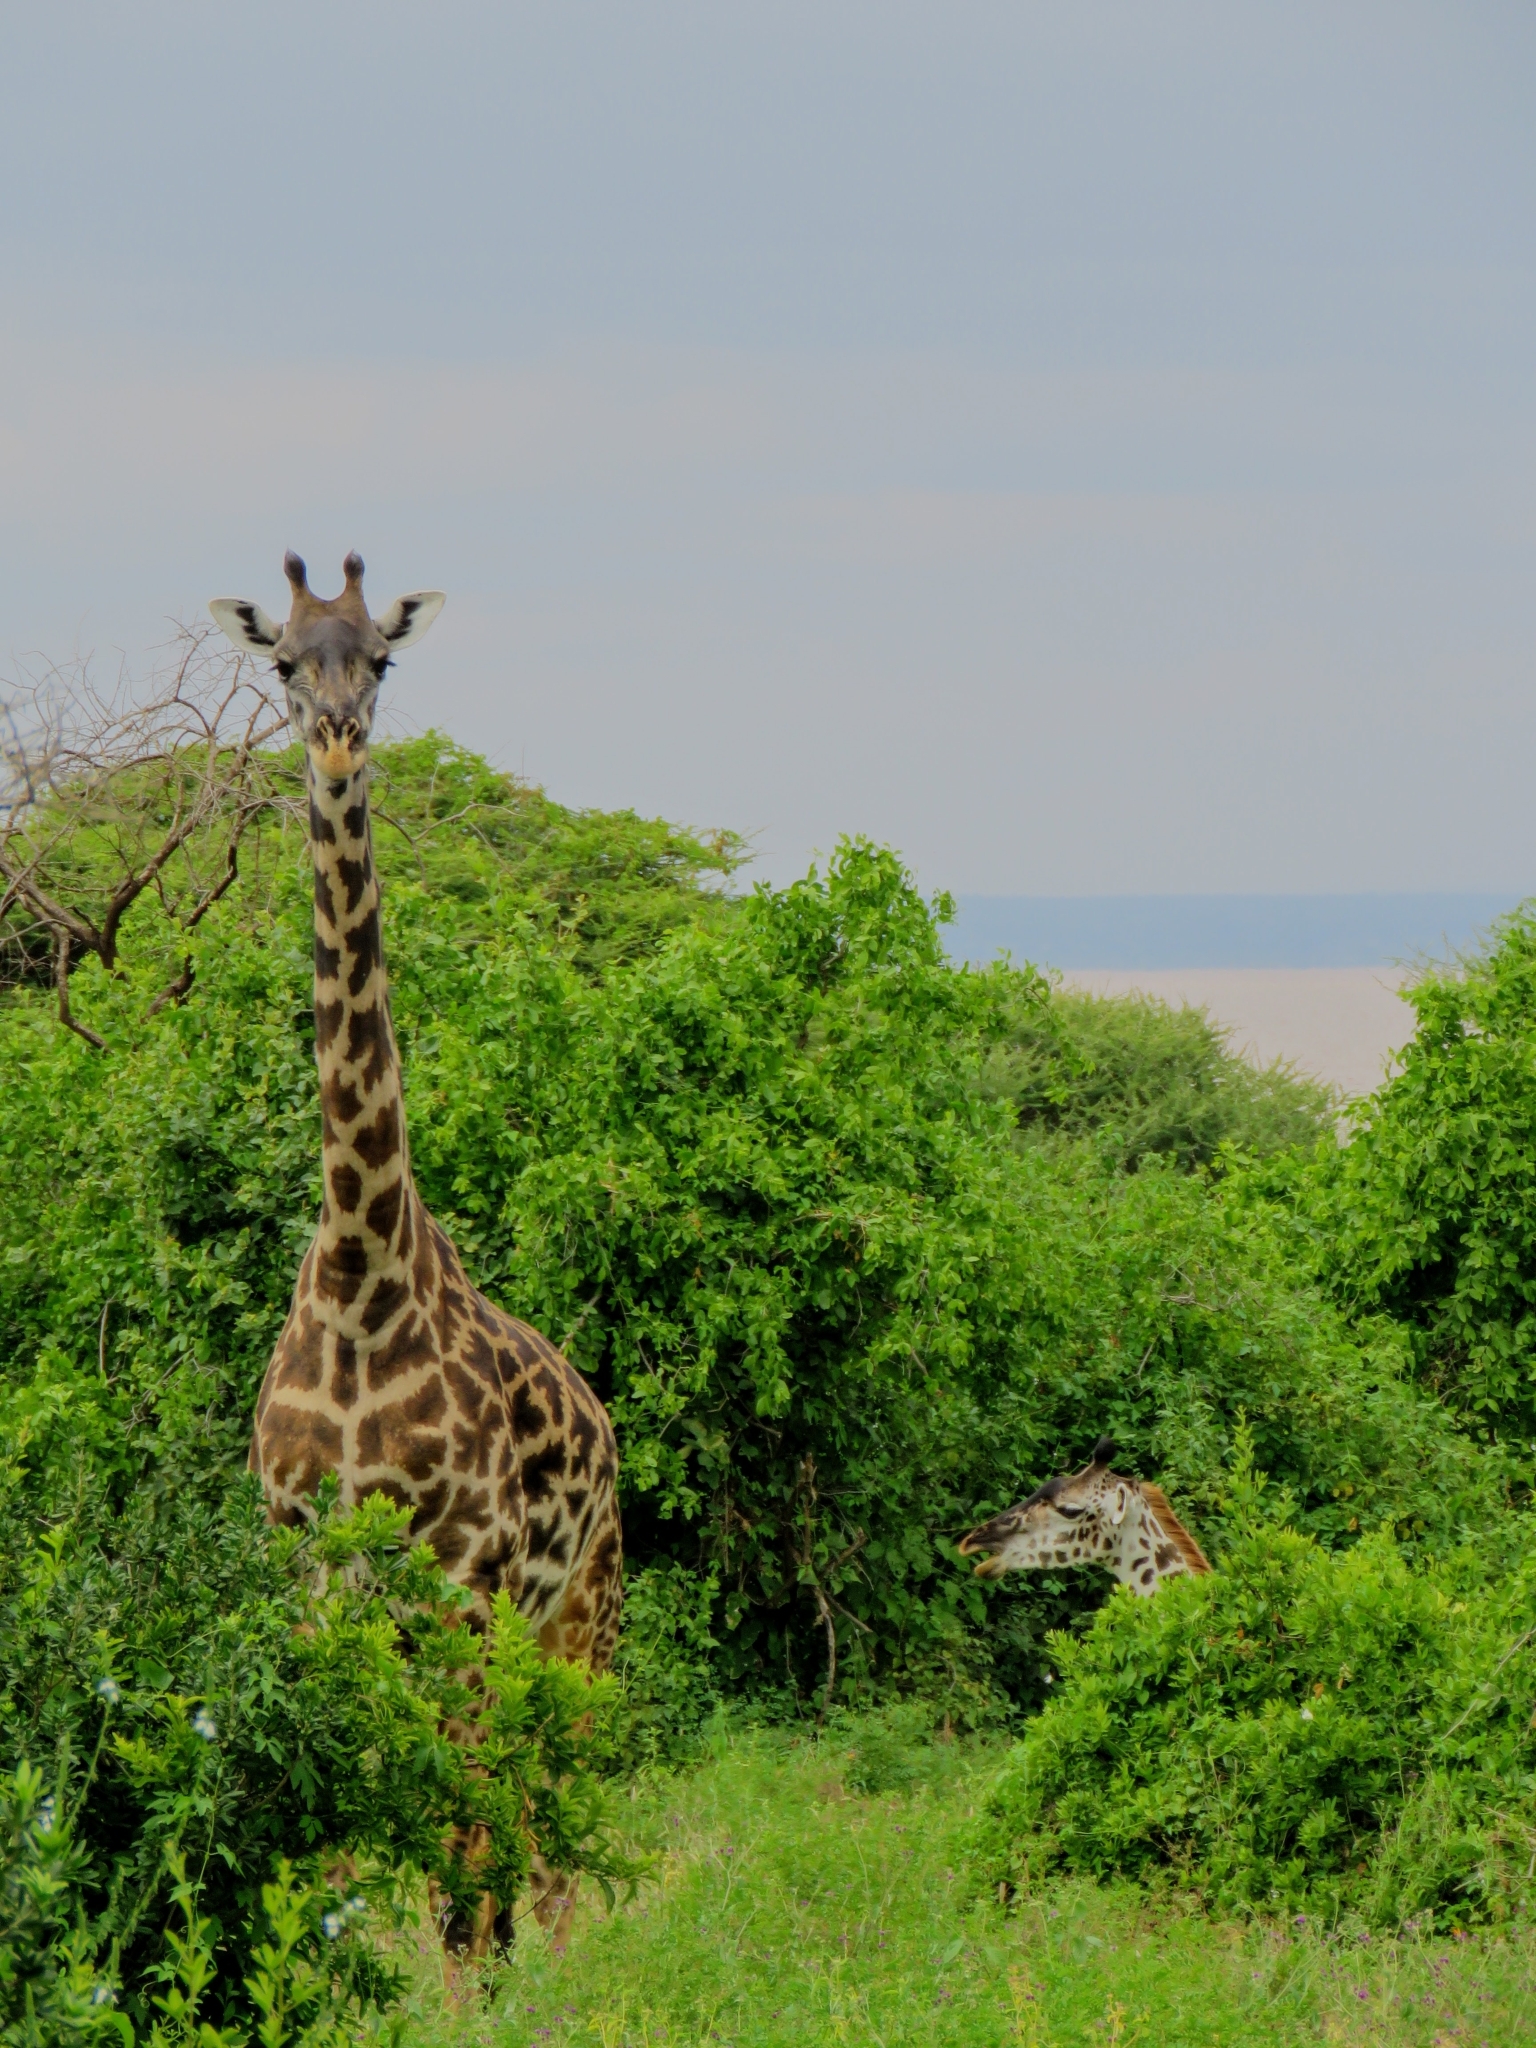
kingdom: Animalia
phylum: Chordata
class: Mammalia
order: Artiodactyla
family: Giraffidae
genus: Giraffa
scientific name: Giraffa tippelskirchi
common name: Masai giraffe
